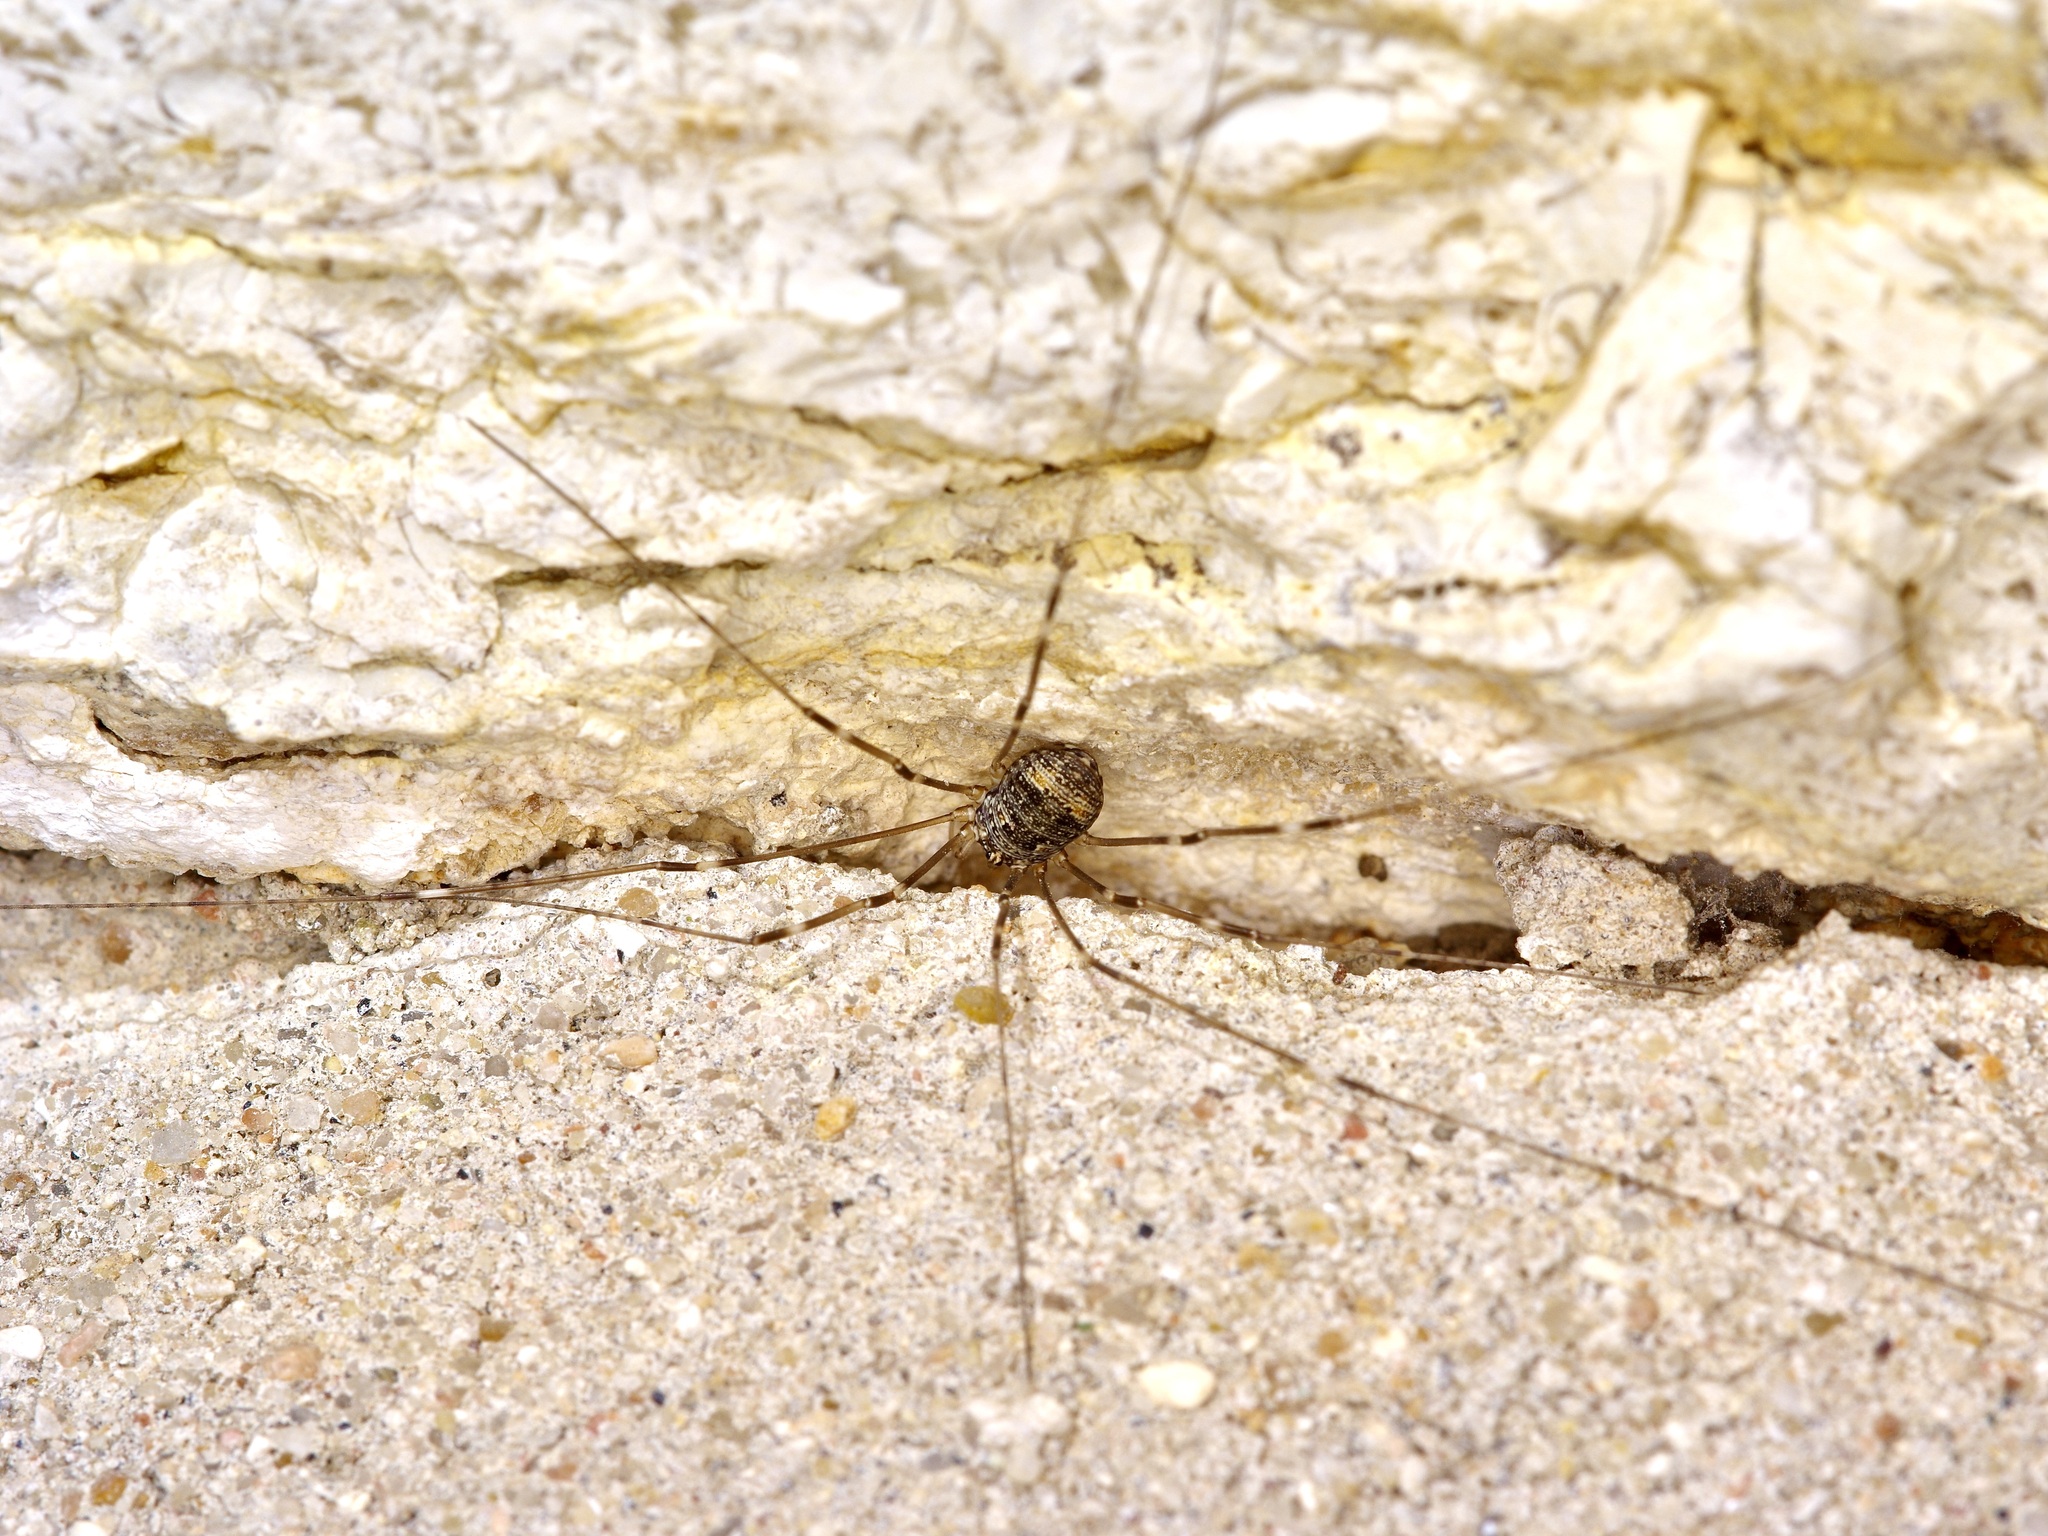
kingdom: Animalia
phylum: Arthropoda
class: Arachnida
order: Opiliones
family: Sclerosomatidae
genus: Leiobunum
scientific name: Leiobunum townsendi
